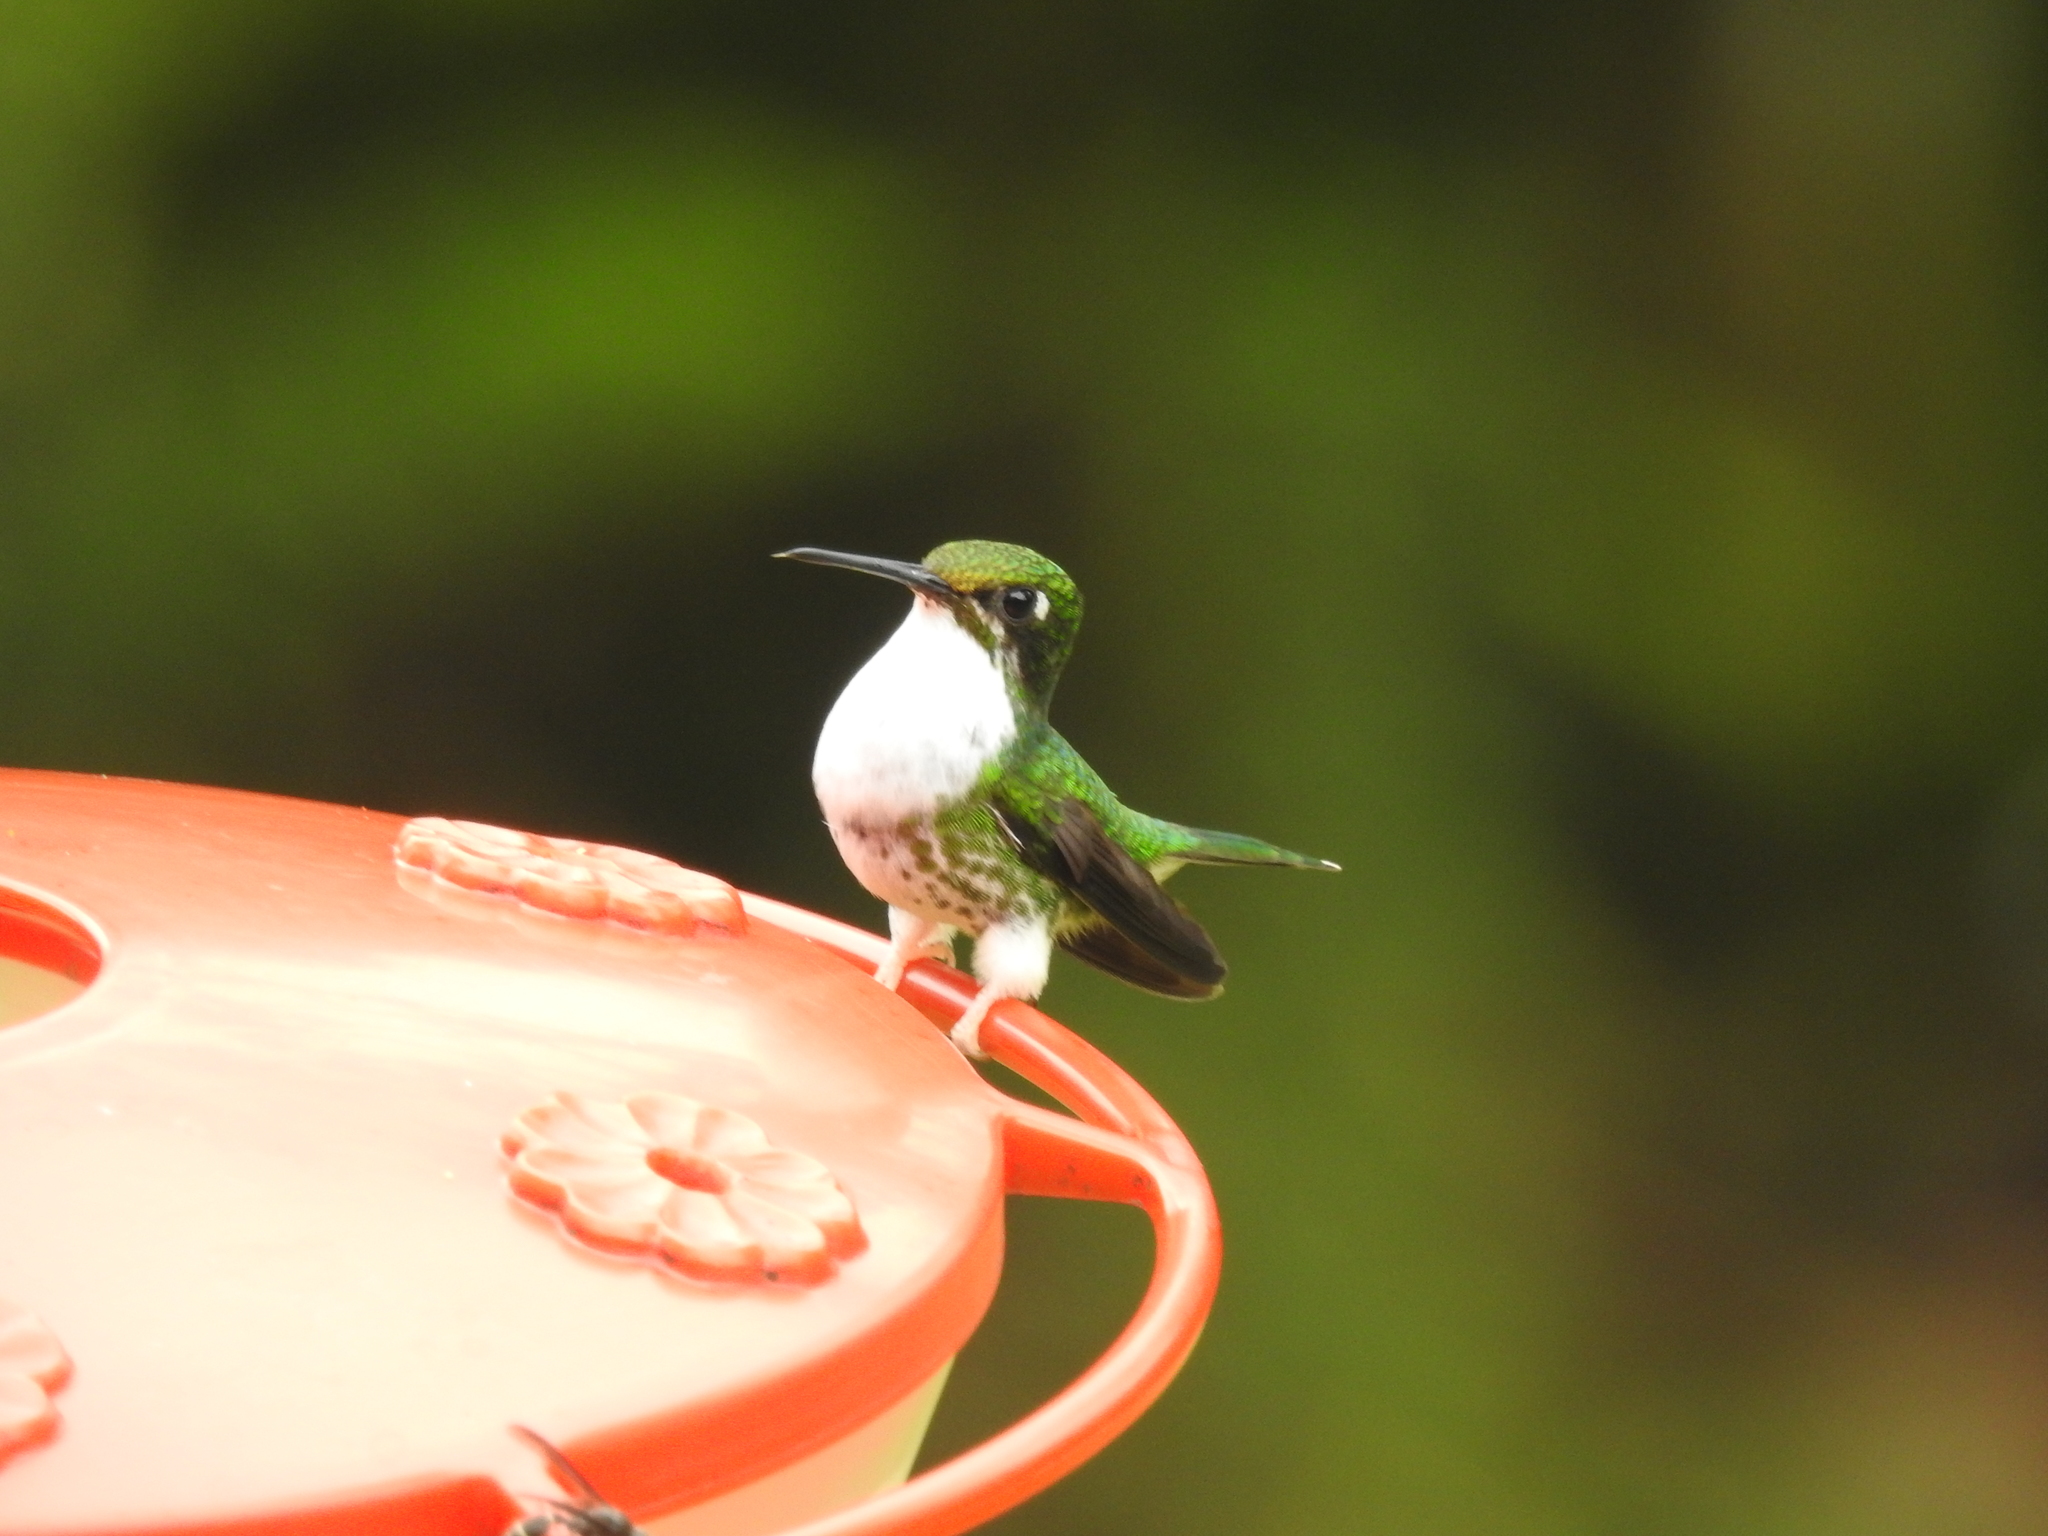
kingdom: Animalia
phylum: Chordata
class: Aves
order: Apodiformes
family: Trochilidae
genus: Ocreatus
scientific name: Ocreatus underwoodii
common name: Booted racket-tail
